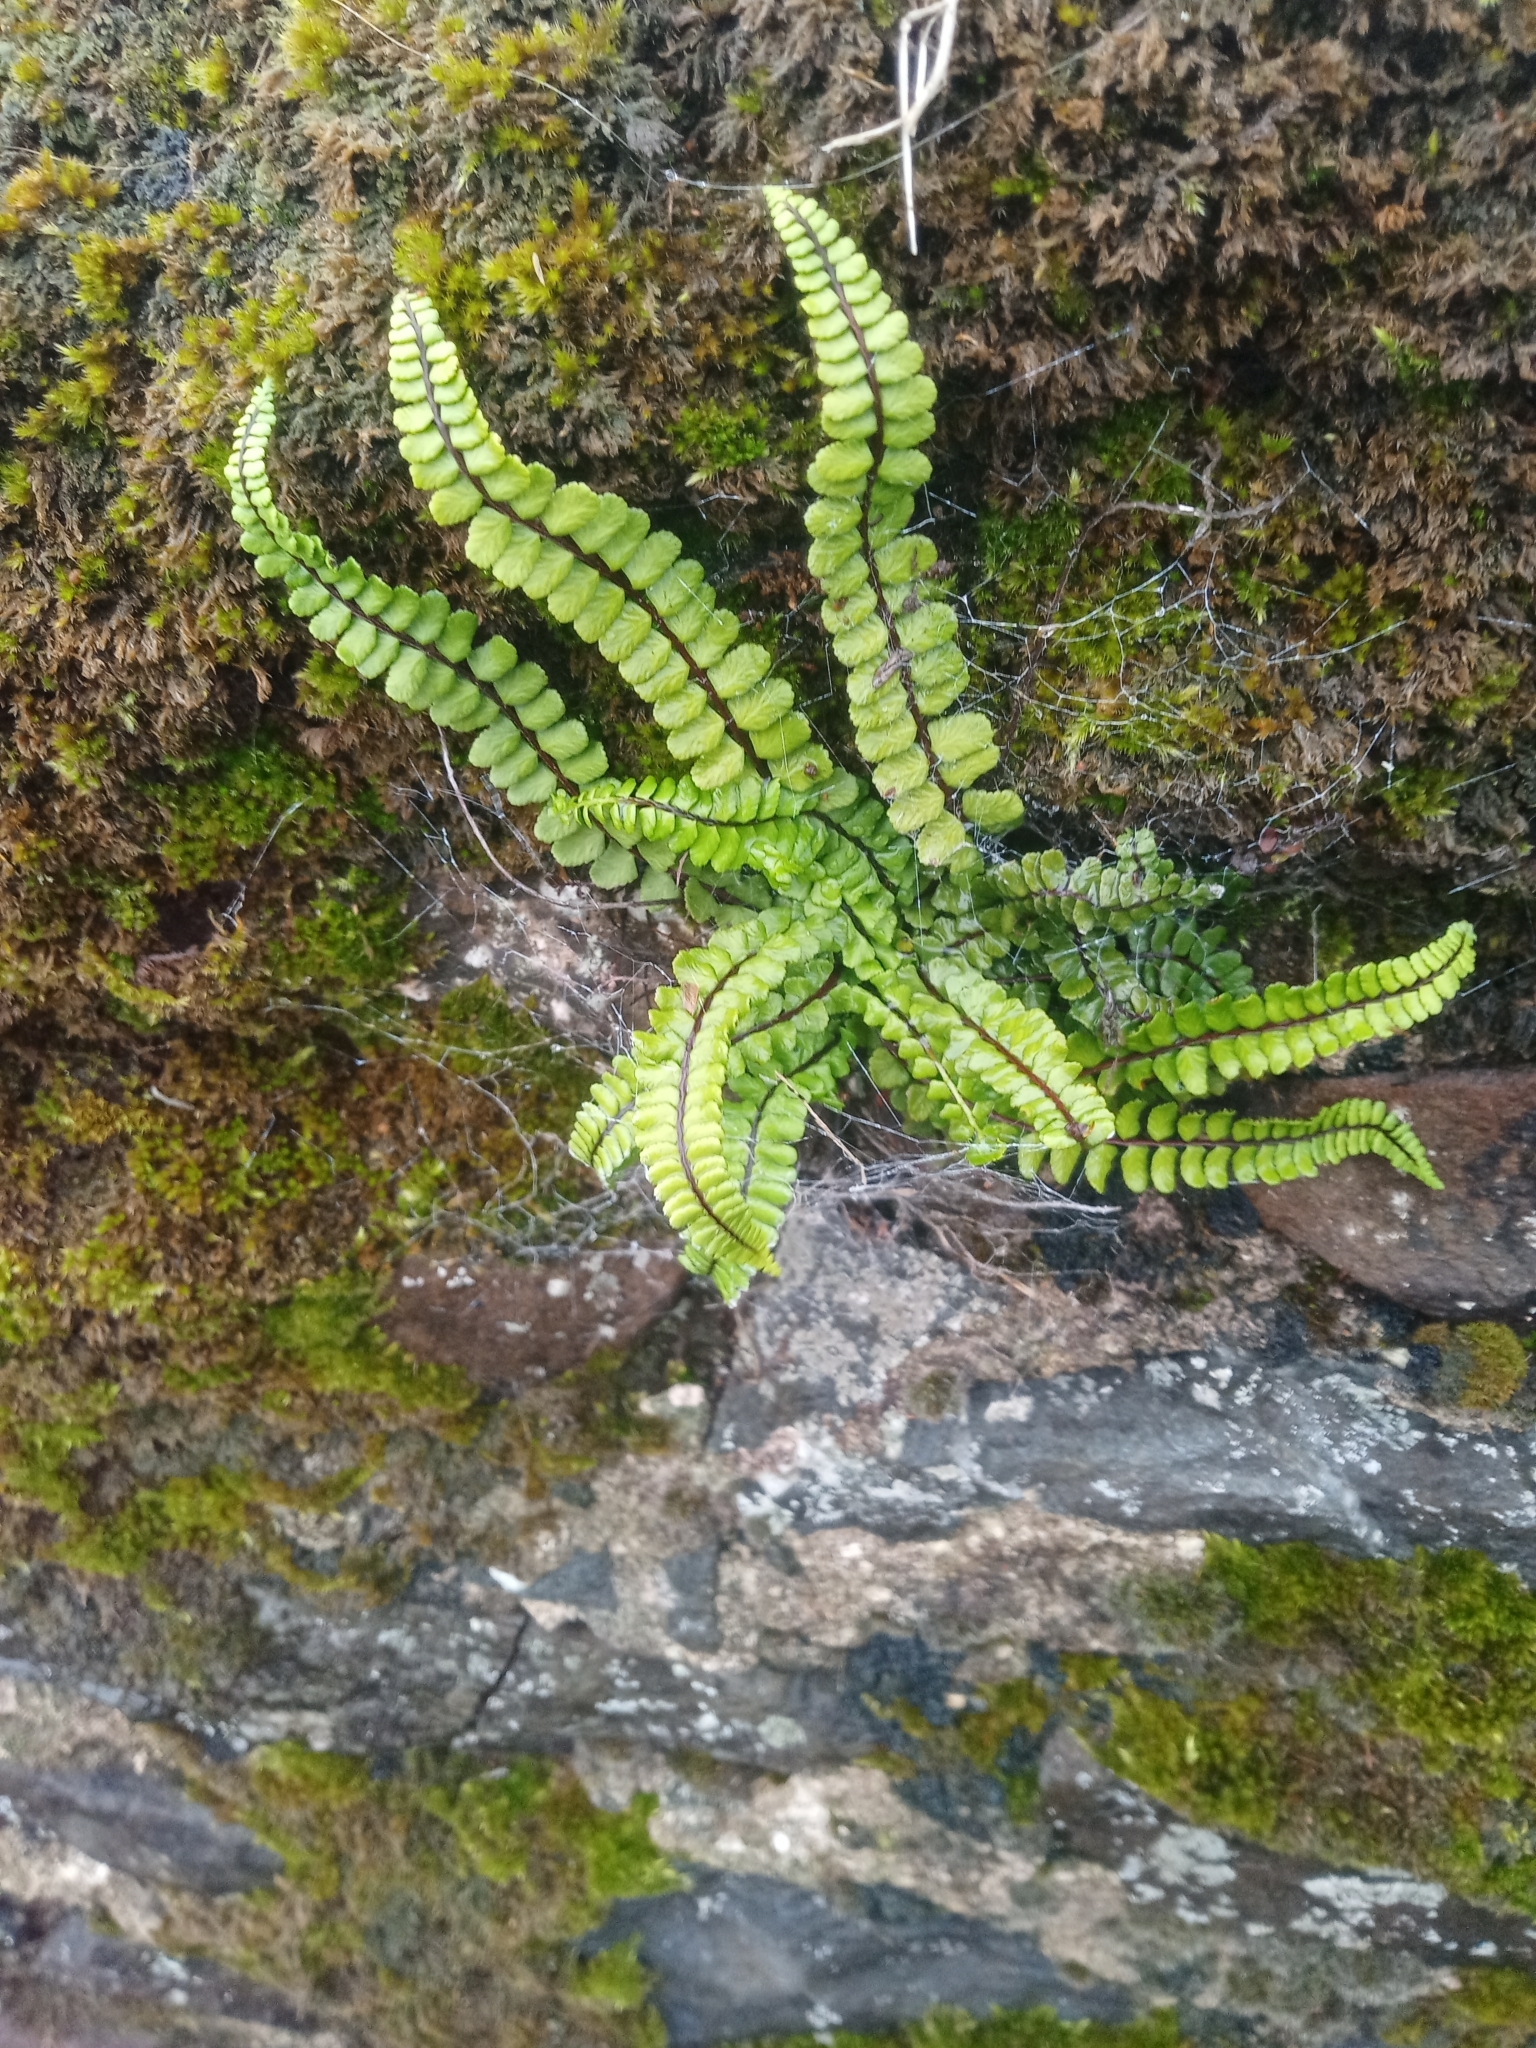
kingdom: Plantae
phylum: Tracheophyta
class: Polypodiopsida
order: Polypodiales
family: Aspleniaceae
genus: Asplenium
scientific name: Asplenium trichomanes
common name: Maidenhair spleenwort
